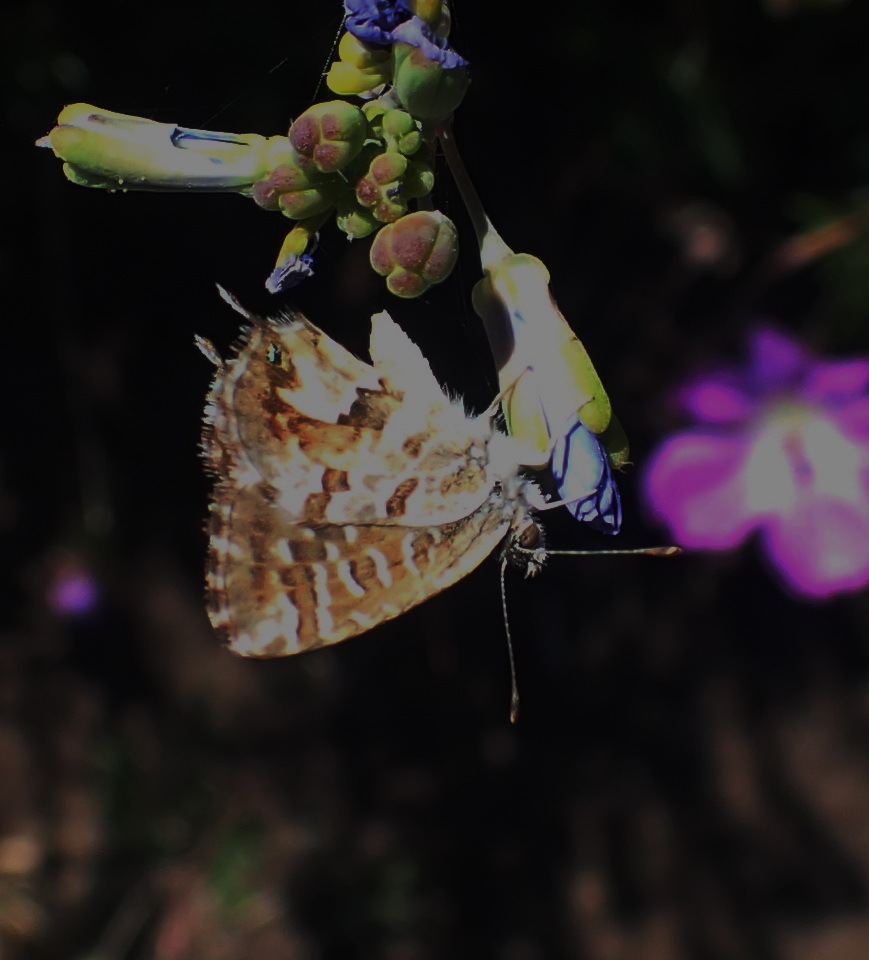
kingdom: Animalia
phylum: Arthropoda
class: Insecta
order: Lepidoptera
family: Lycaenidae
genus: Cacyreus
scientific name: Cacyreus marshalli
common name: Geranium bronze
